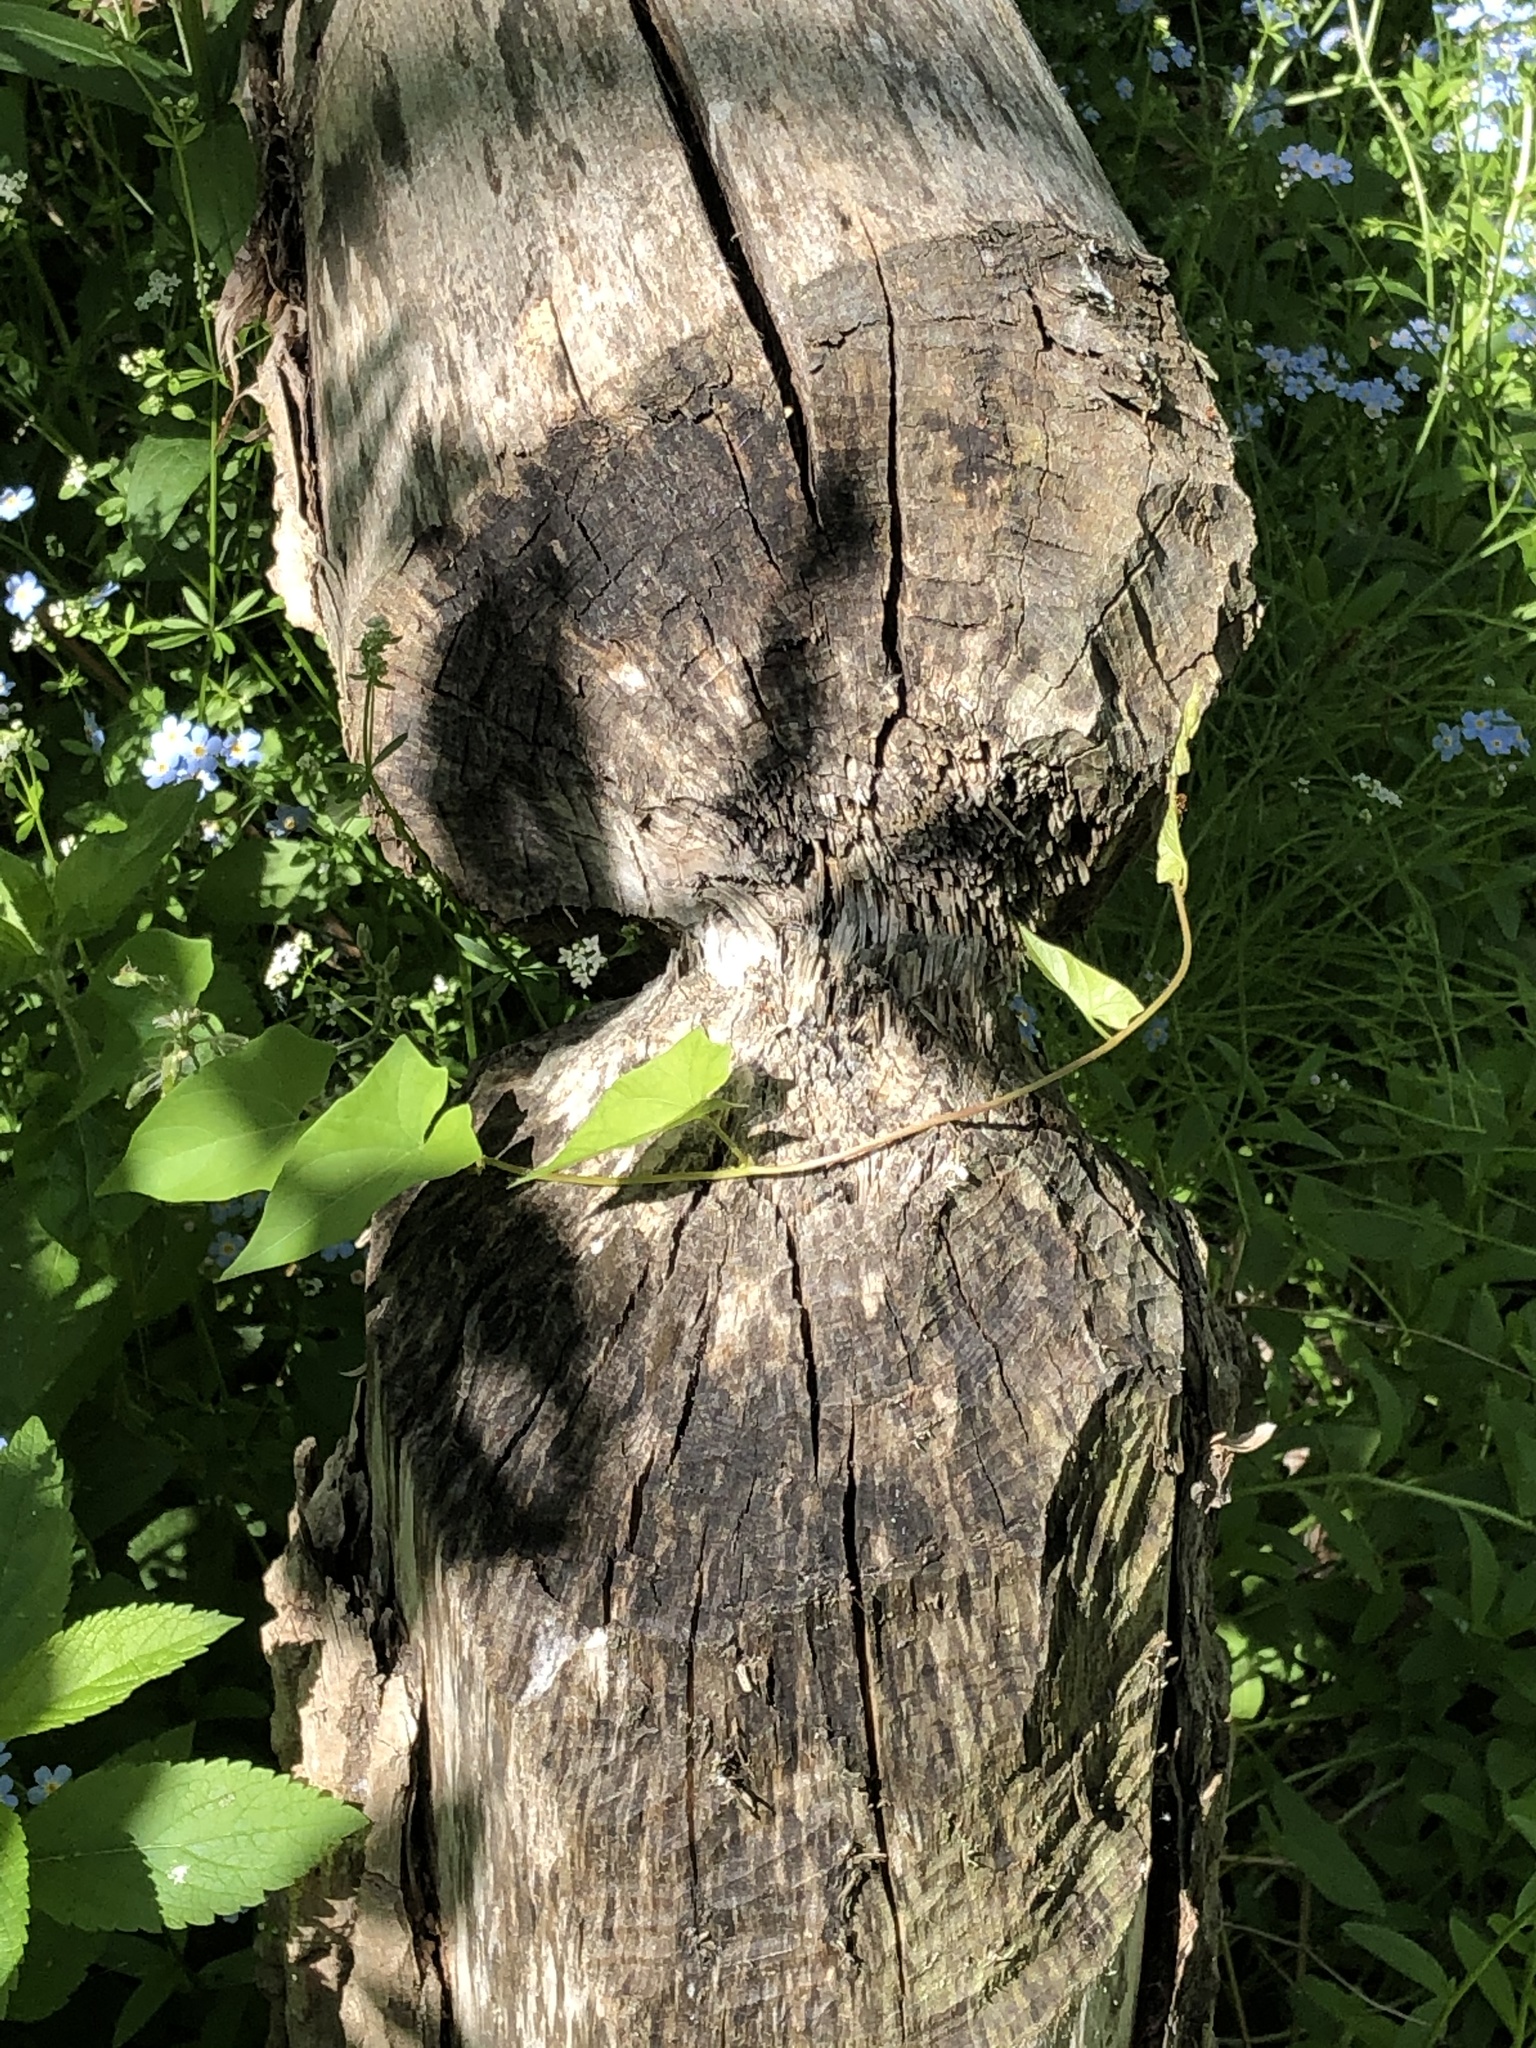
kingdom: Animalia
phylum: Chordata
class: Mammalia
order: Rodentia
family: Castoridae
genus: Castor
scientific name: Castor canadensis
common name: American beaver
